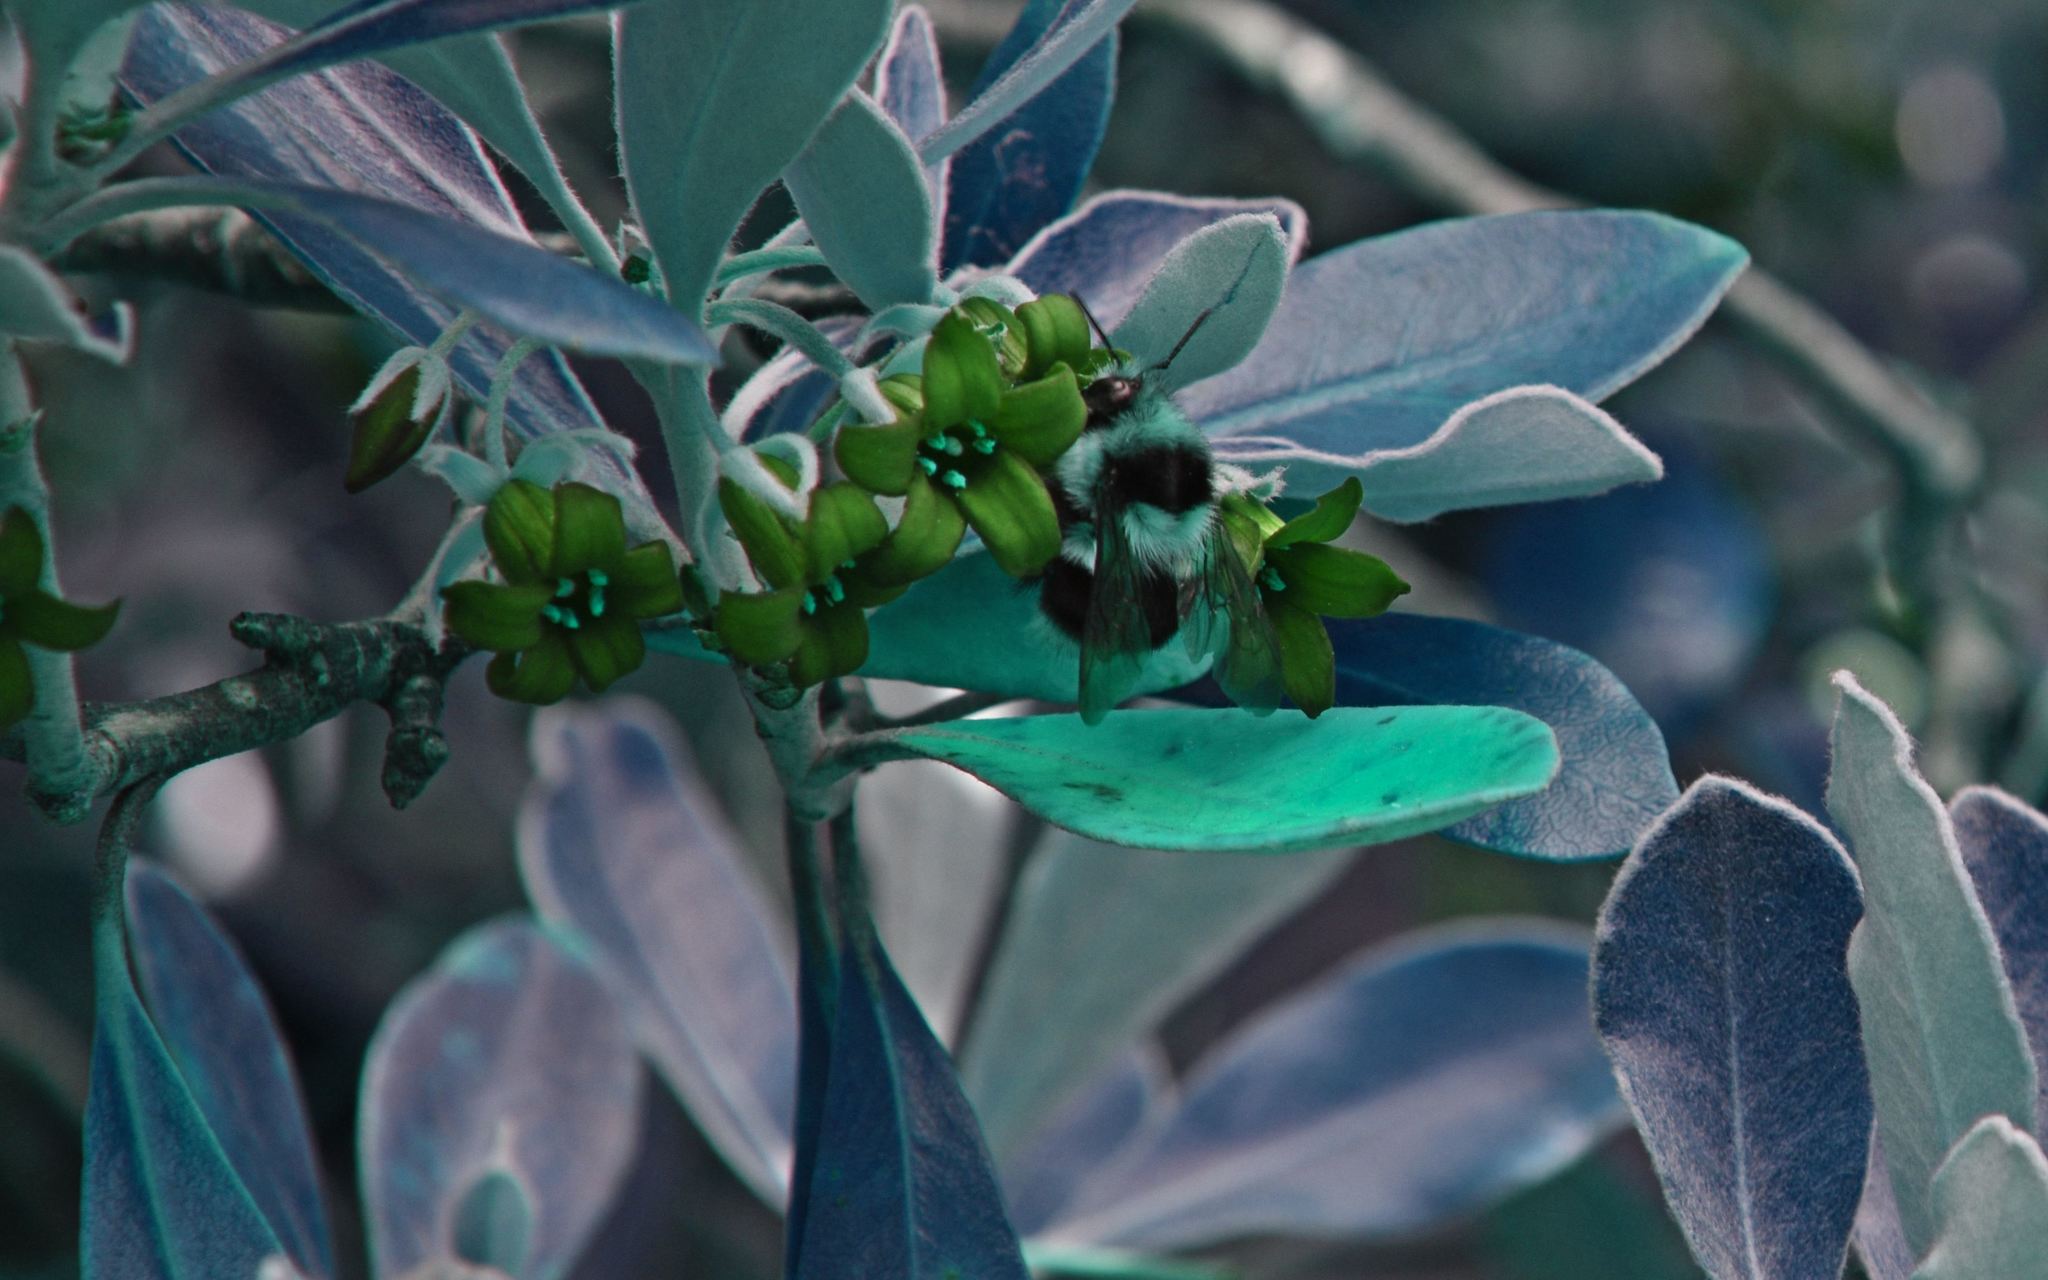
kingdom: Animalia
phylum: Arthropoda
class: Insecta
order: Hymenoptera
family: Apidae
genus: Bombus
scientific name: Bombus melanopygus
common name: Black tail bumble bee
